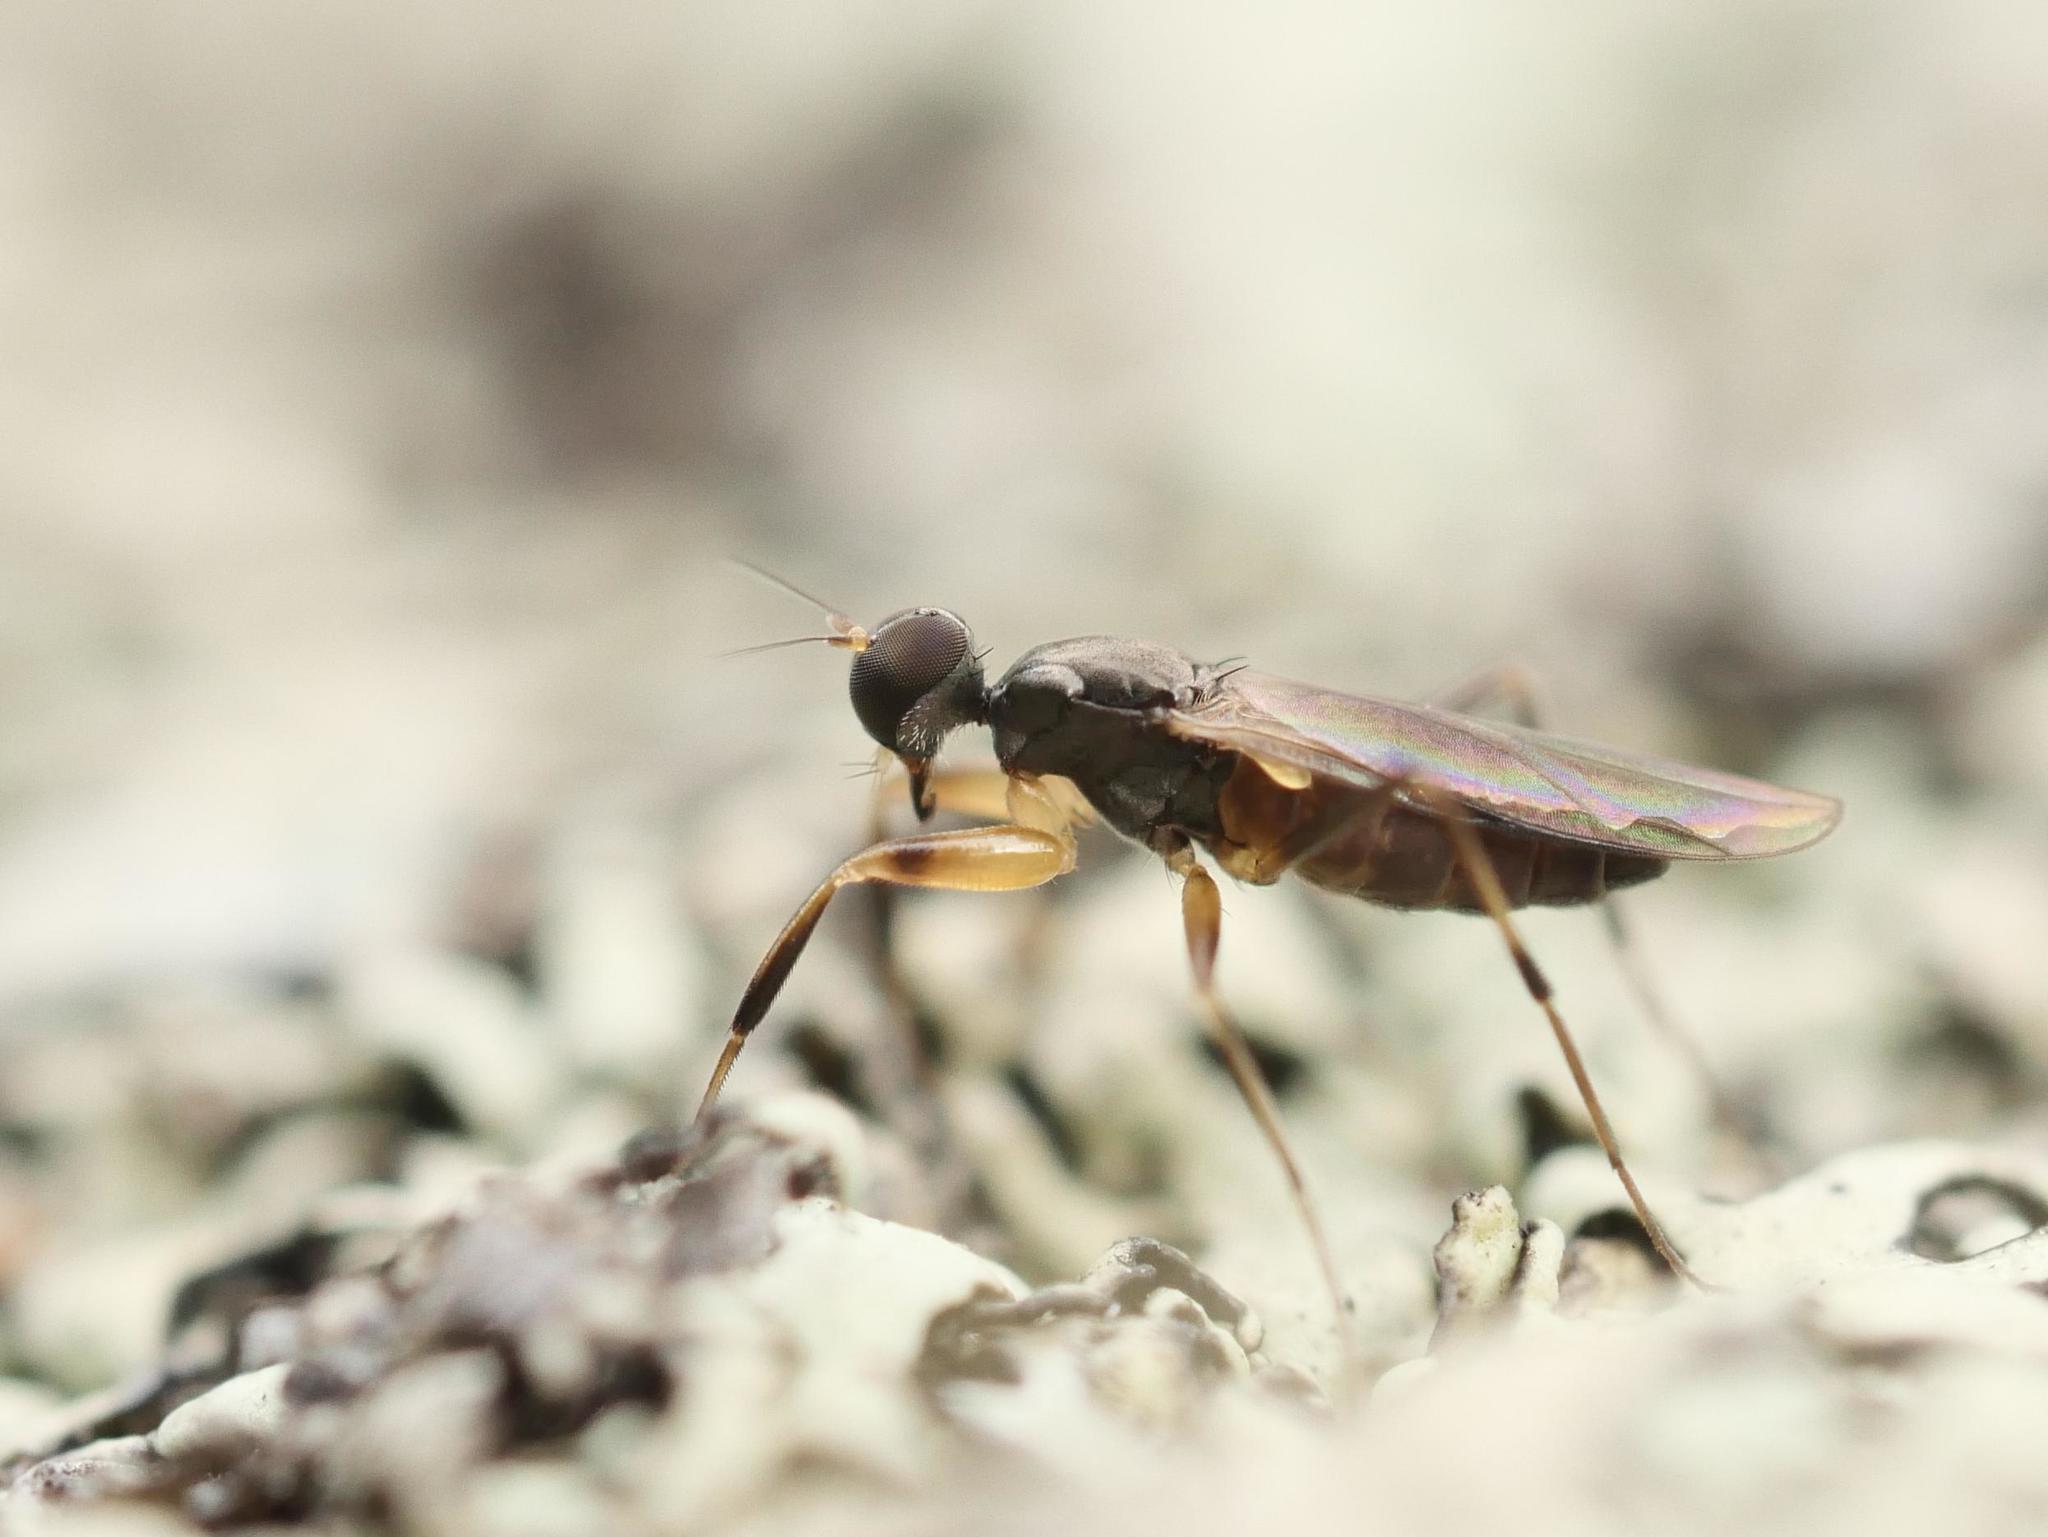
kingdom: Animalia
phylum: Arthropoda
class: Insecta
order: Diptera
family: Hybotidae
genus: Tachypeza
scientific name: Tachypeza nubila
